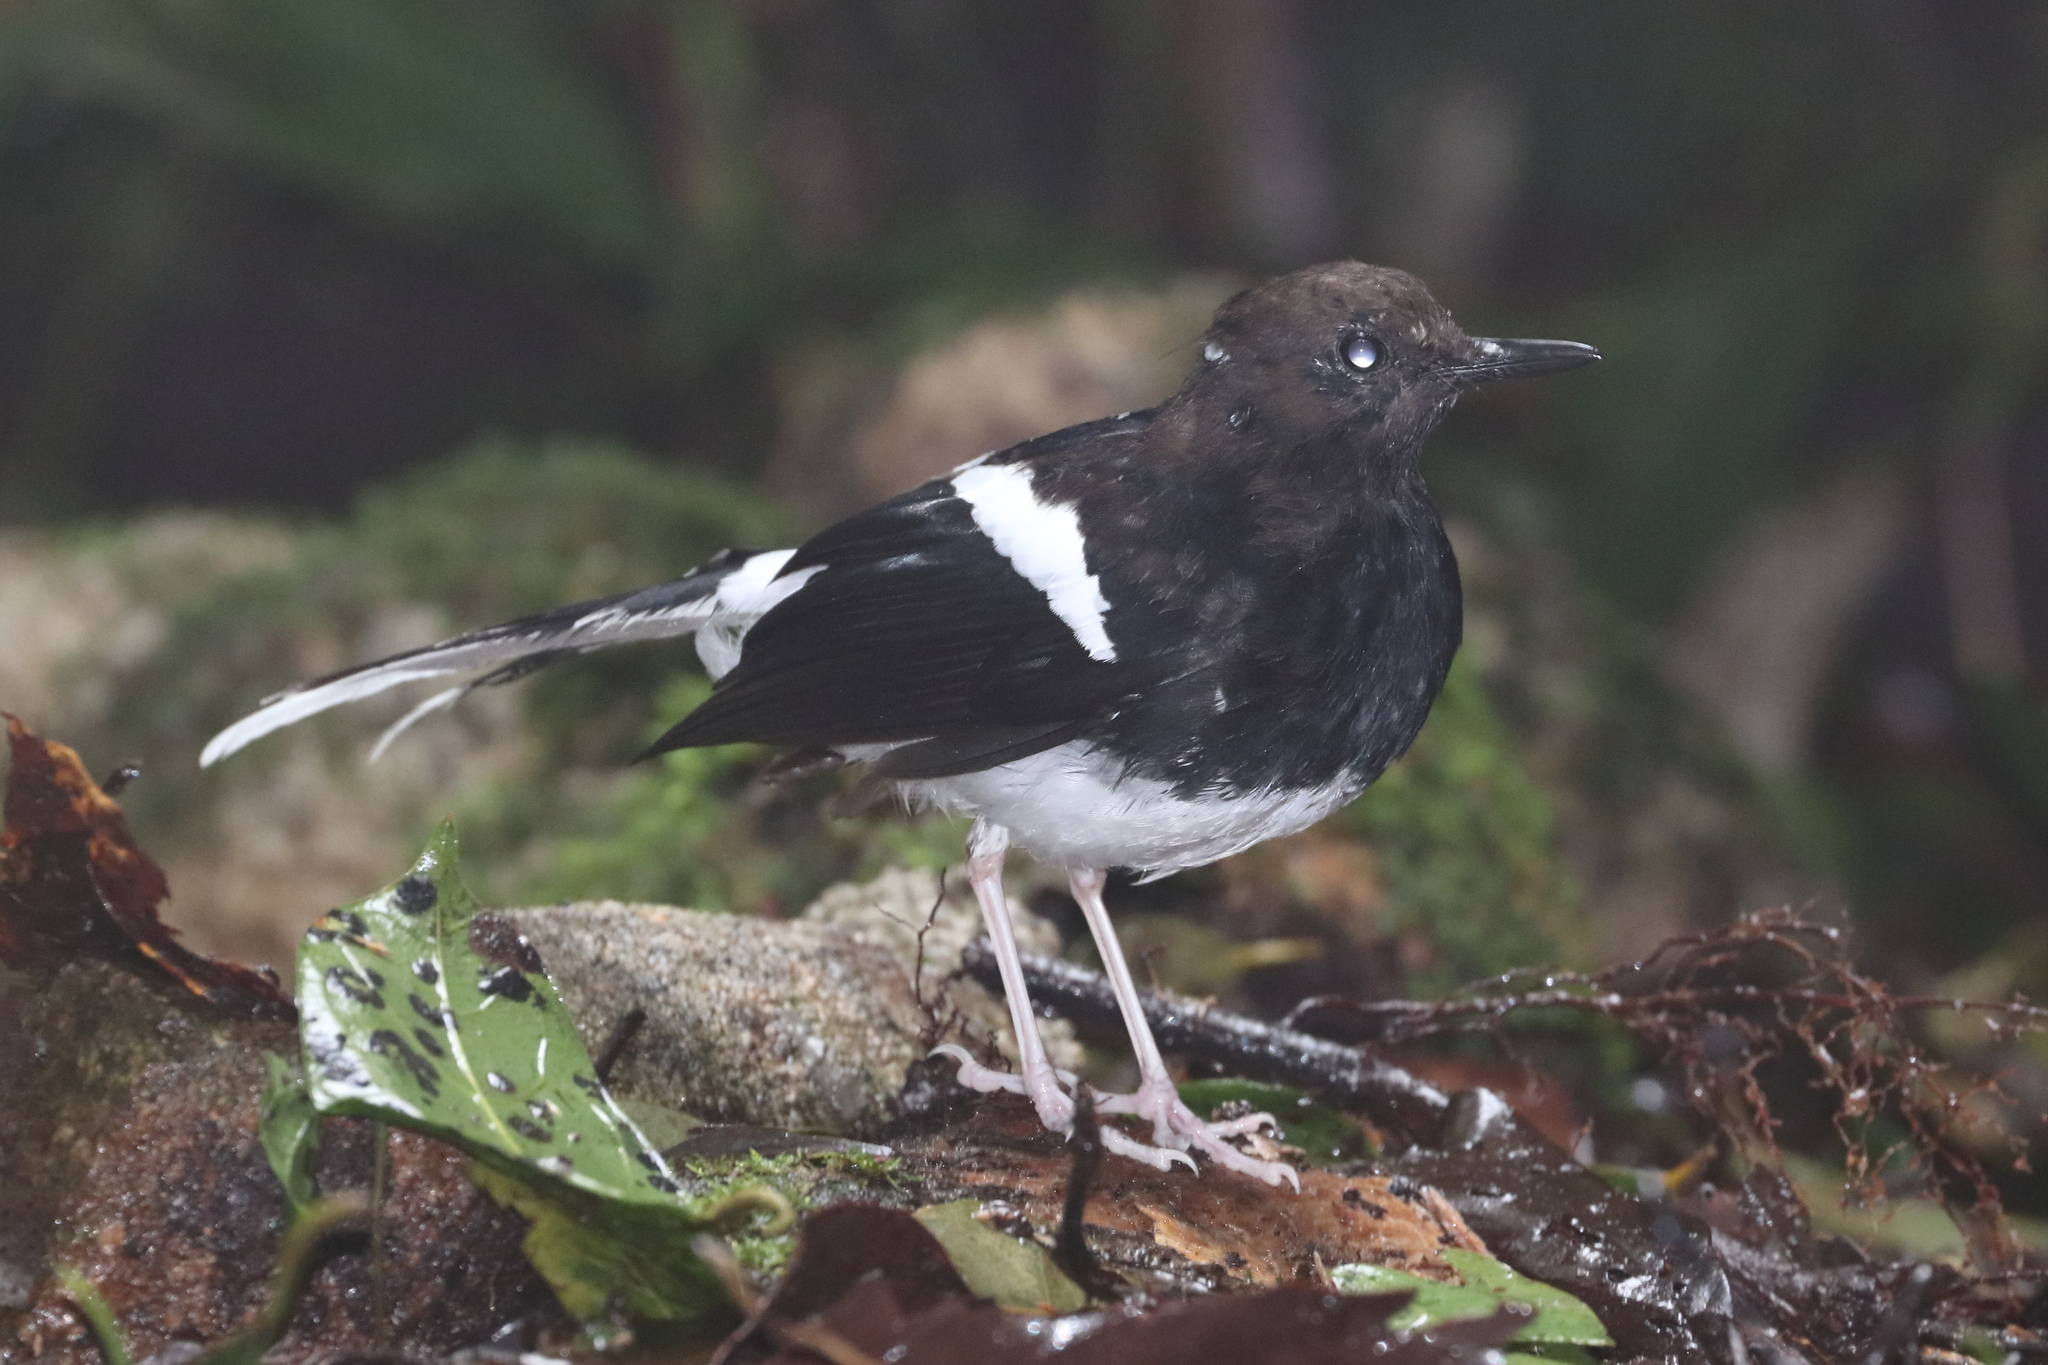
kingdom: Animalia
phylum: Chordata
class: Aves
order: Passeriformes
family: Muscicapidae
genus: Enicurus
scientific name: Enicurus maculatus
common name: Spotted forktail
